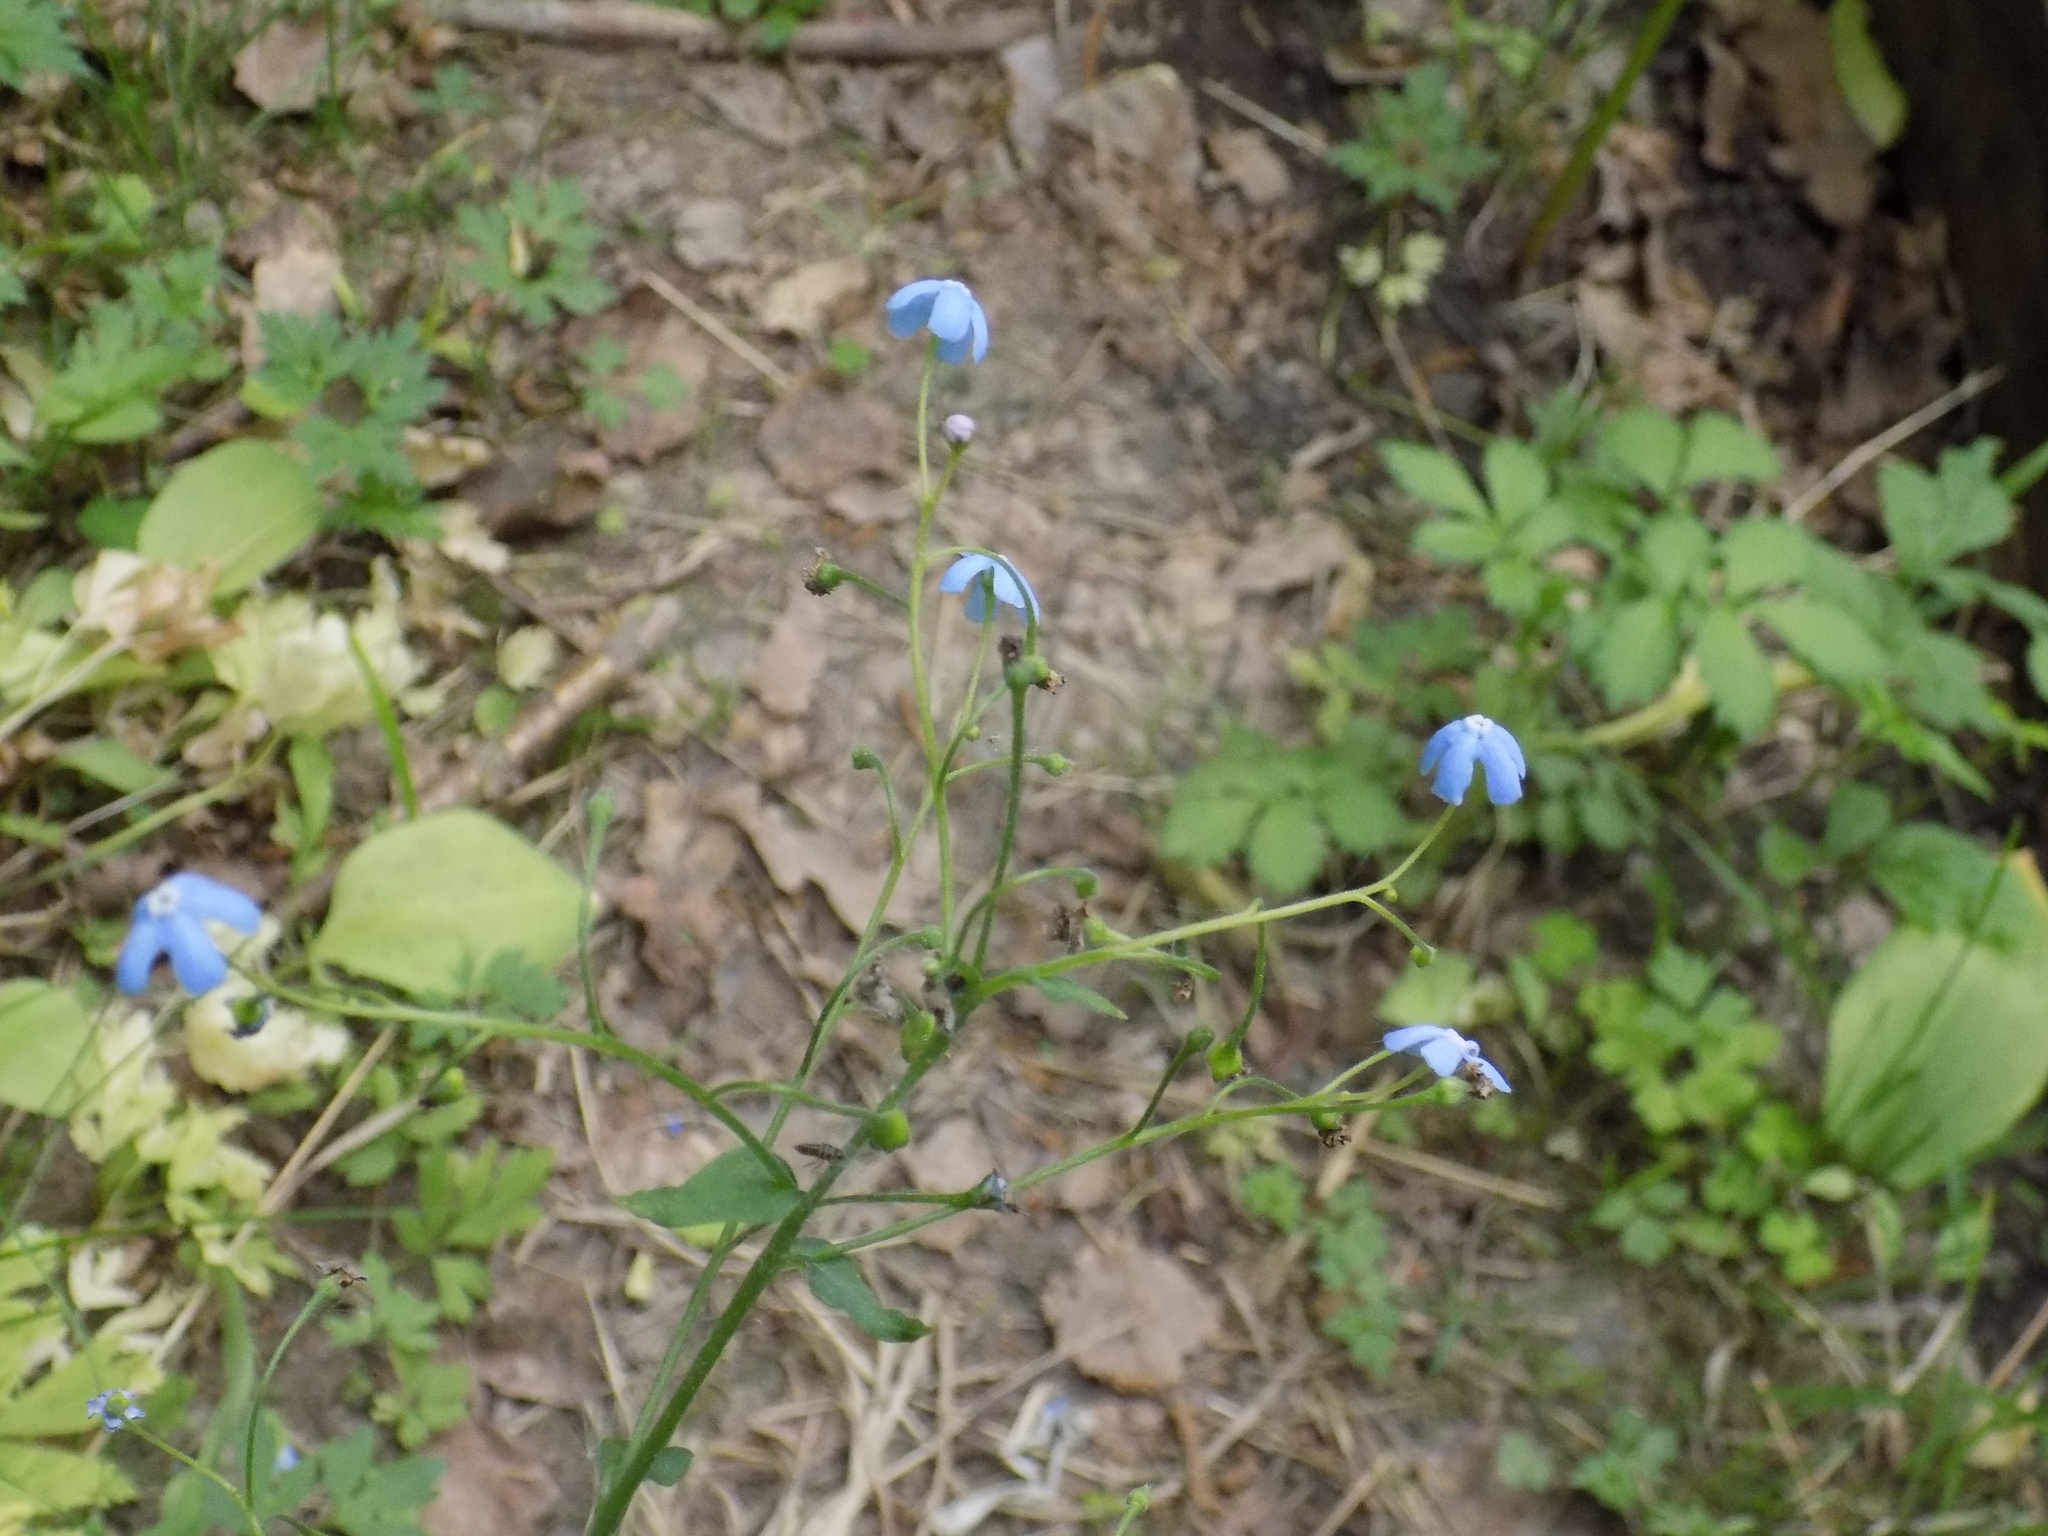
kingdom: Plantae
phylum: Tracheophyta
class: Magnoliopsida
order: Boraginales
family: Boraginaceae
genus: Brunnera
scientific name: Brunnera sibirica
